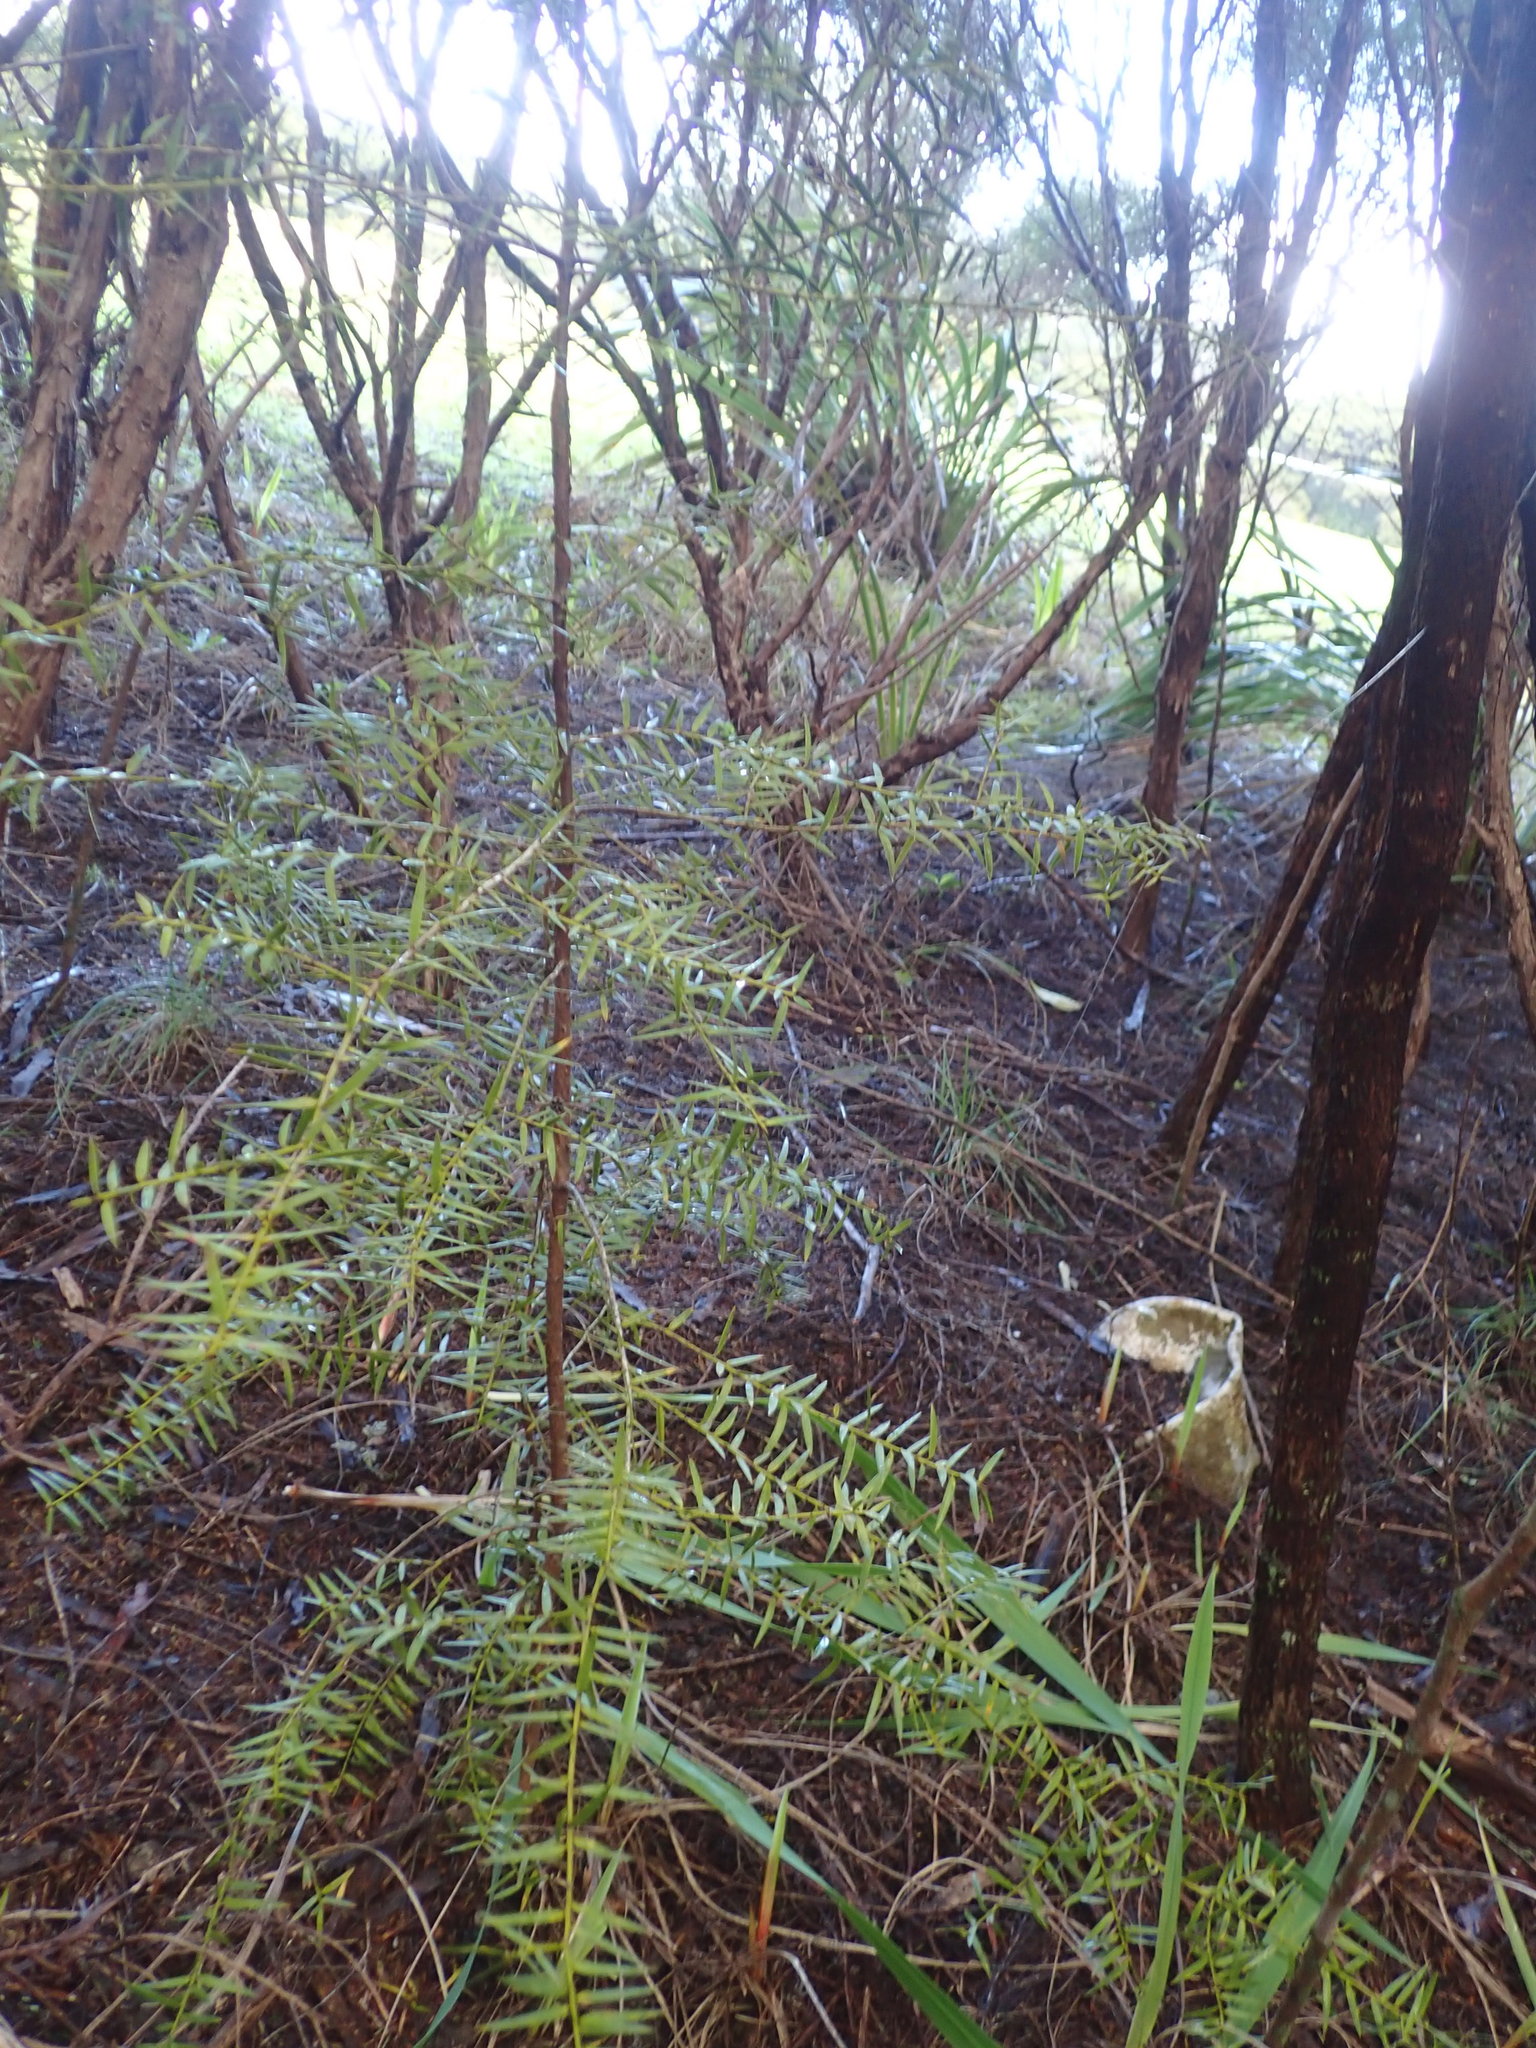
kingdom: Plantae
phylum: Tracheophyta
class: Pinopsida
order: Pinales
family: Podocarpaceae
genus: Podocarpus
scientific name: Podocarpus totara
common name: Totara
